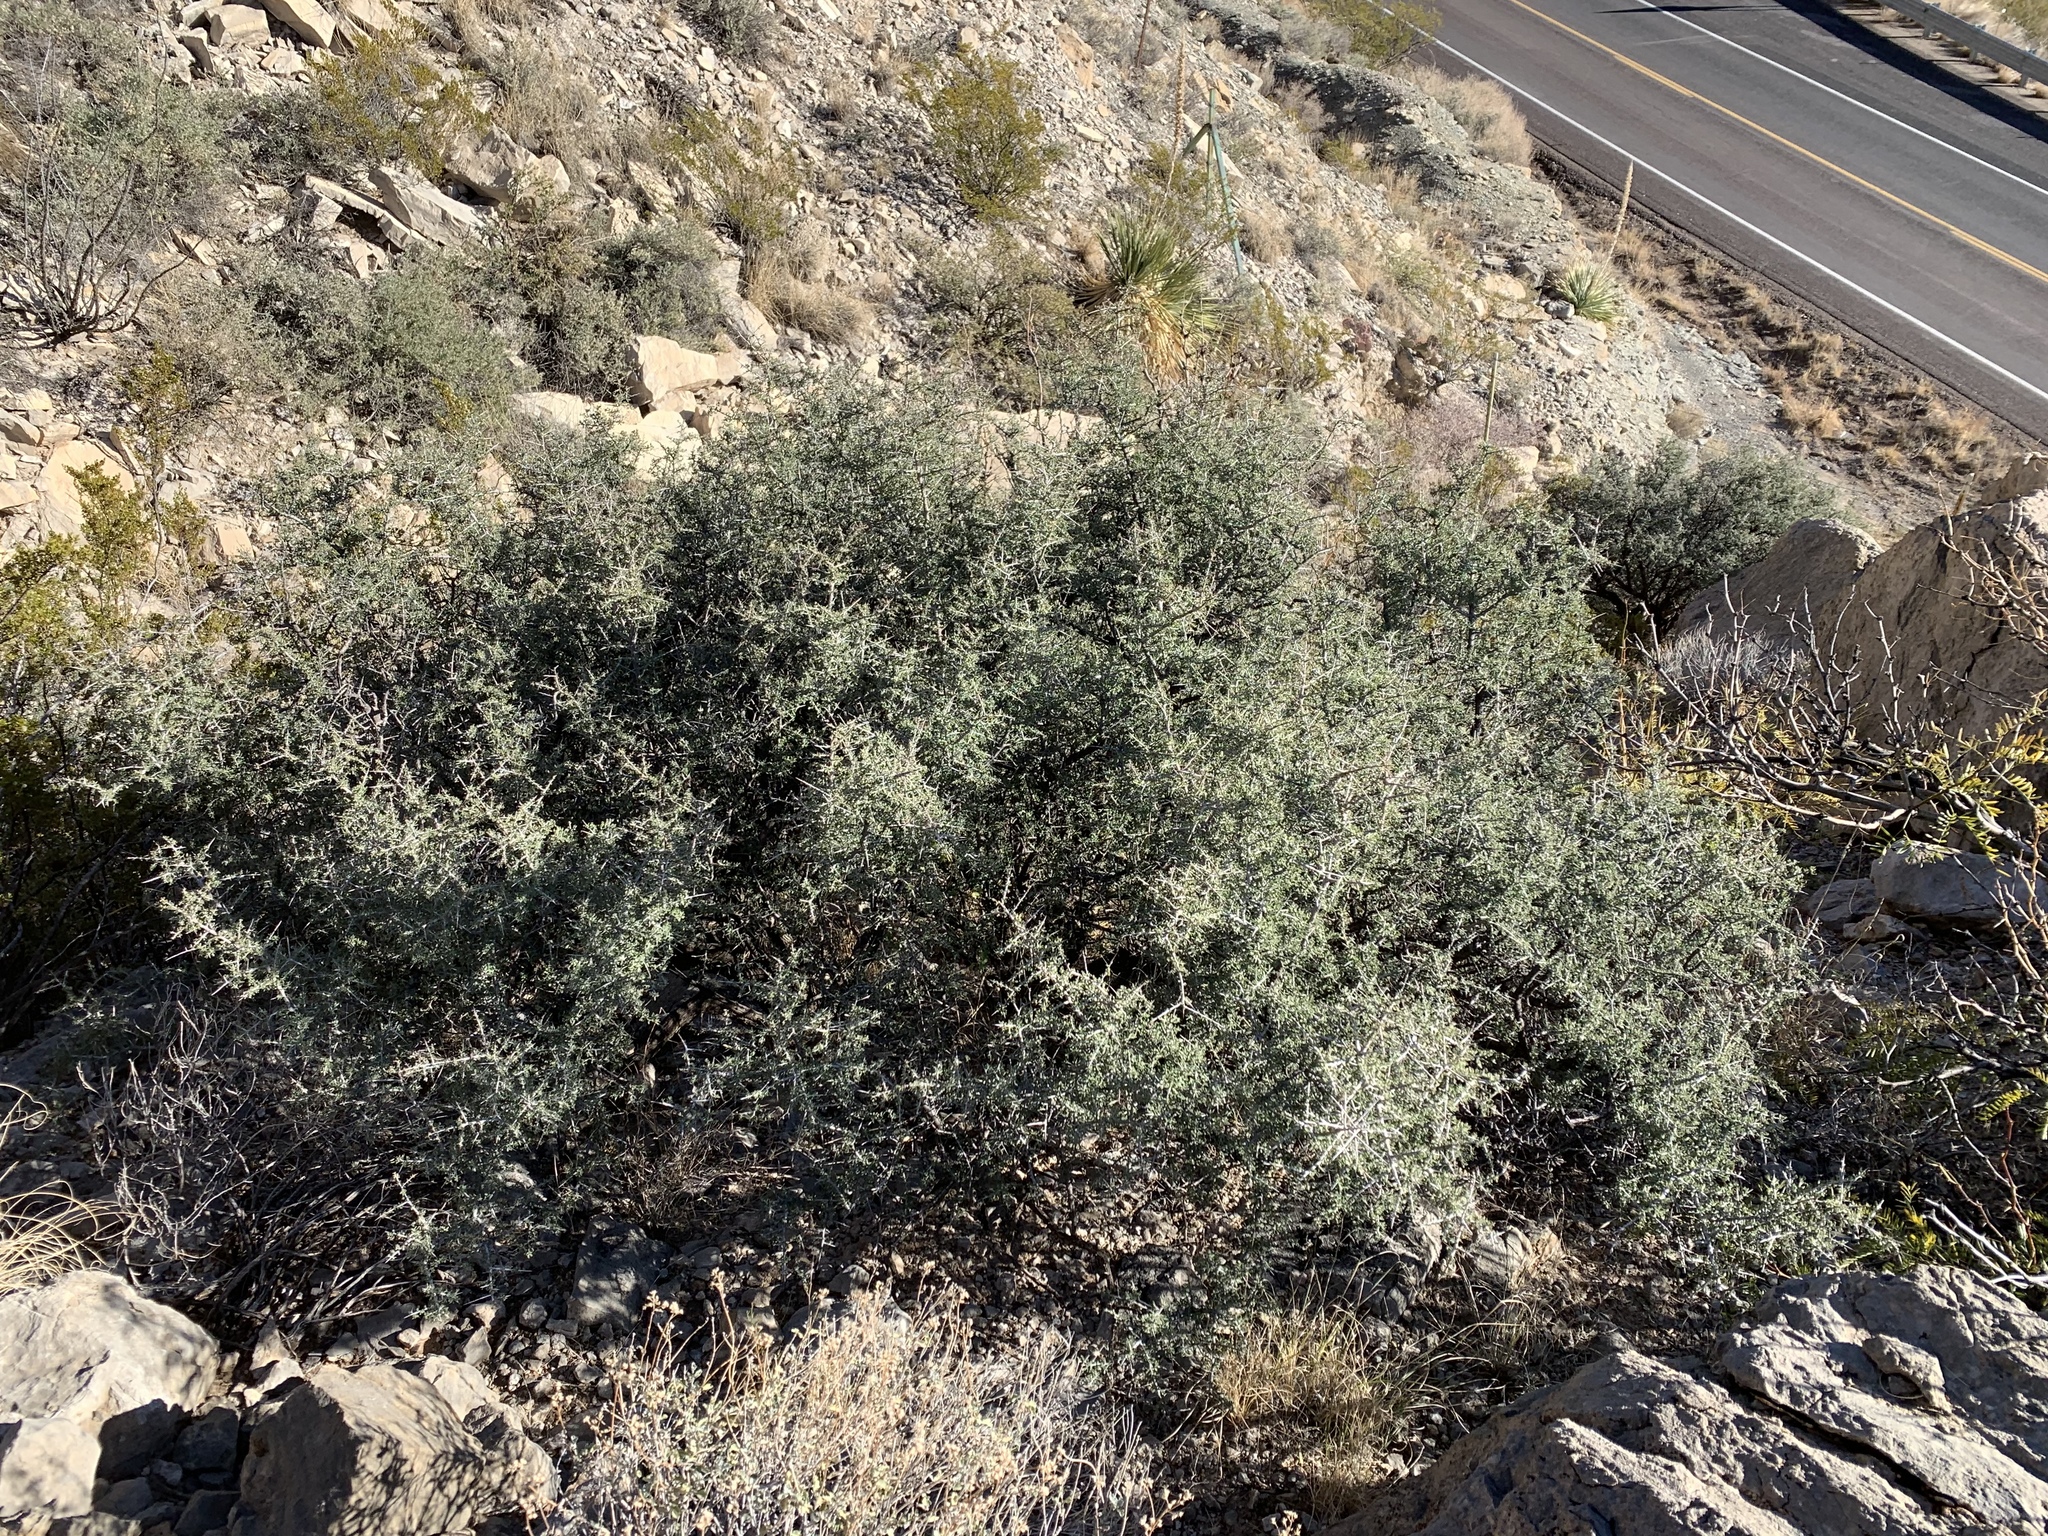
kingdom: Plantae
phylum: Tracheophyta
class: Magnoliopsida
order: Rosales
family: Rhamnaceae
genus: Condalia
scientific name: Condalia warnockii
